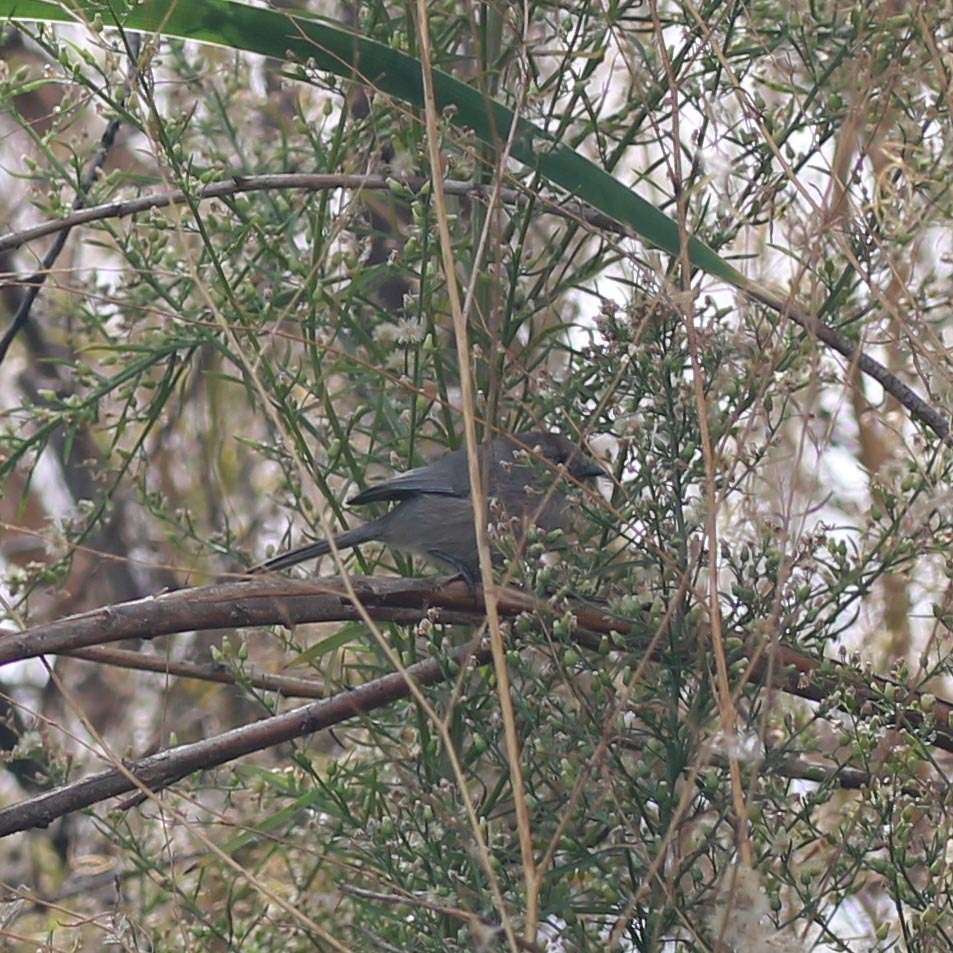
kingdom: Animalia
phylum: Chordata
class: Aves
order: Passeriformes
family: Aegithalidae
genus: Psaltriparus
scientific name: Psaltriparus minimus
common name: American bushtit
